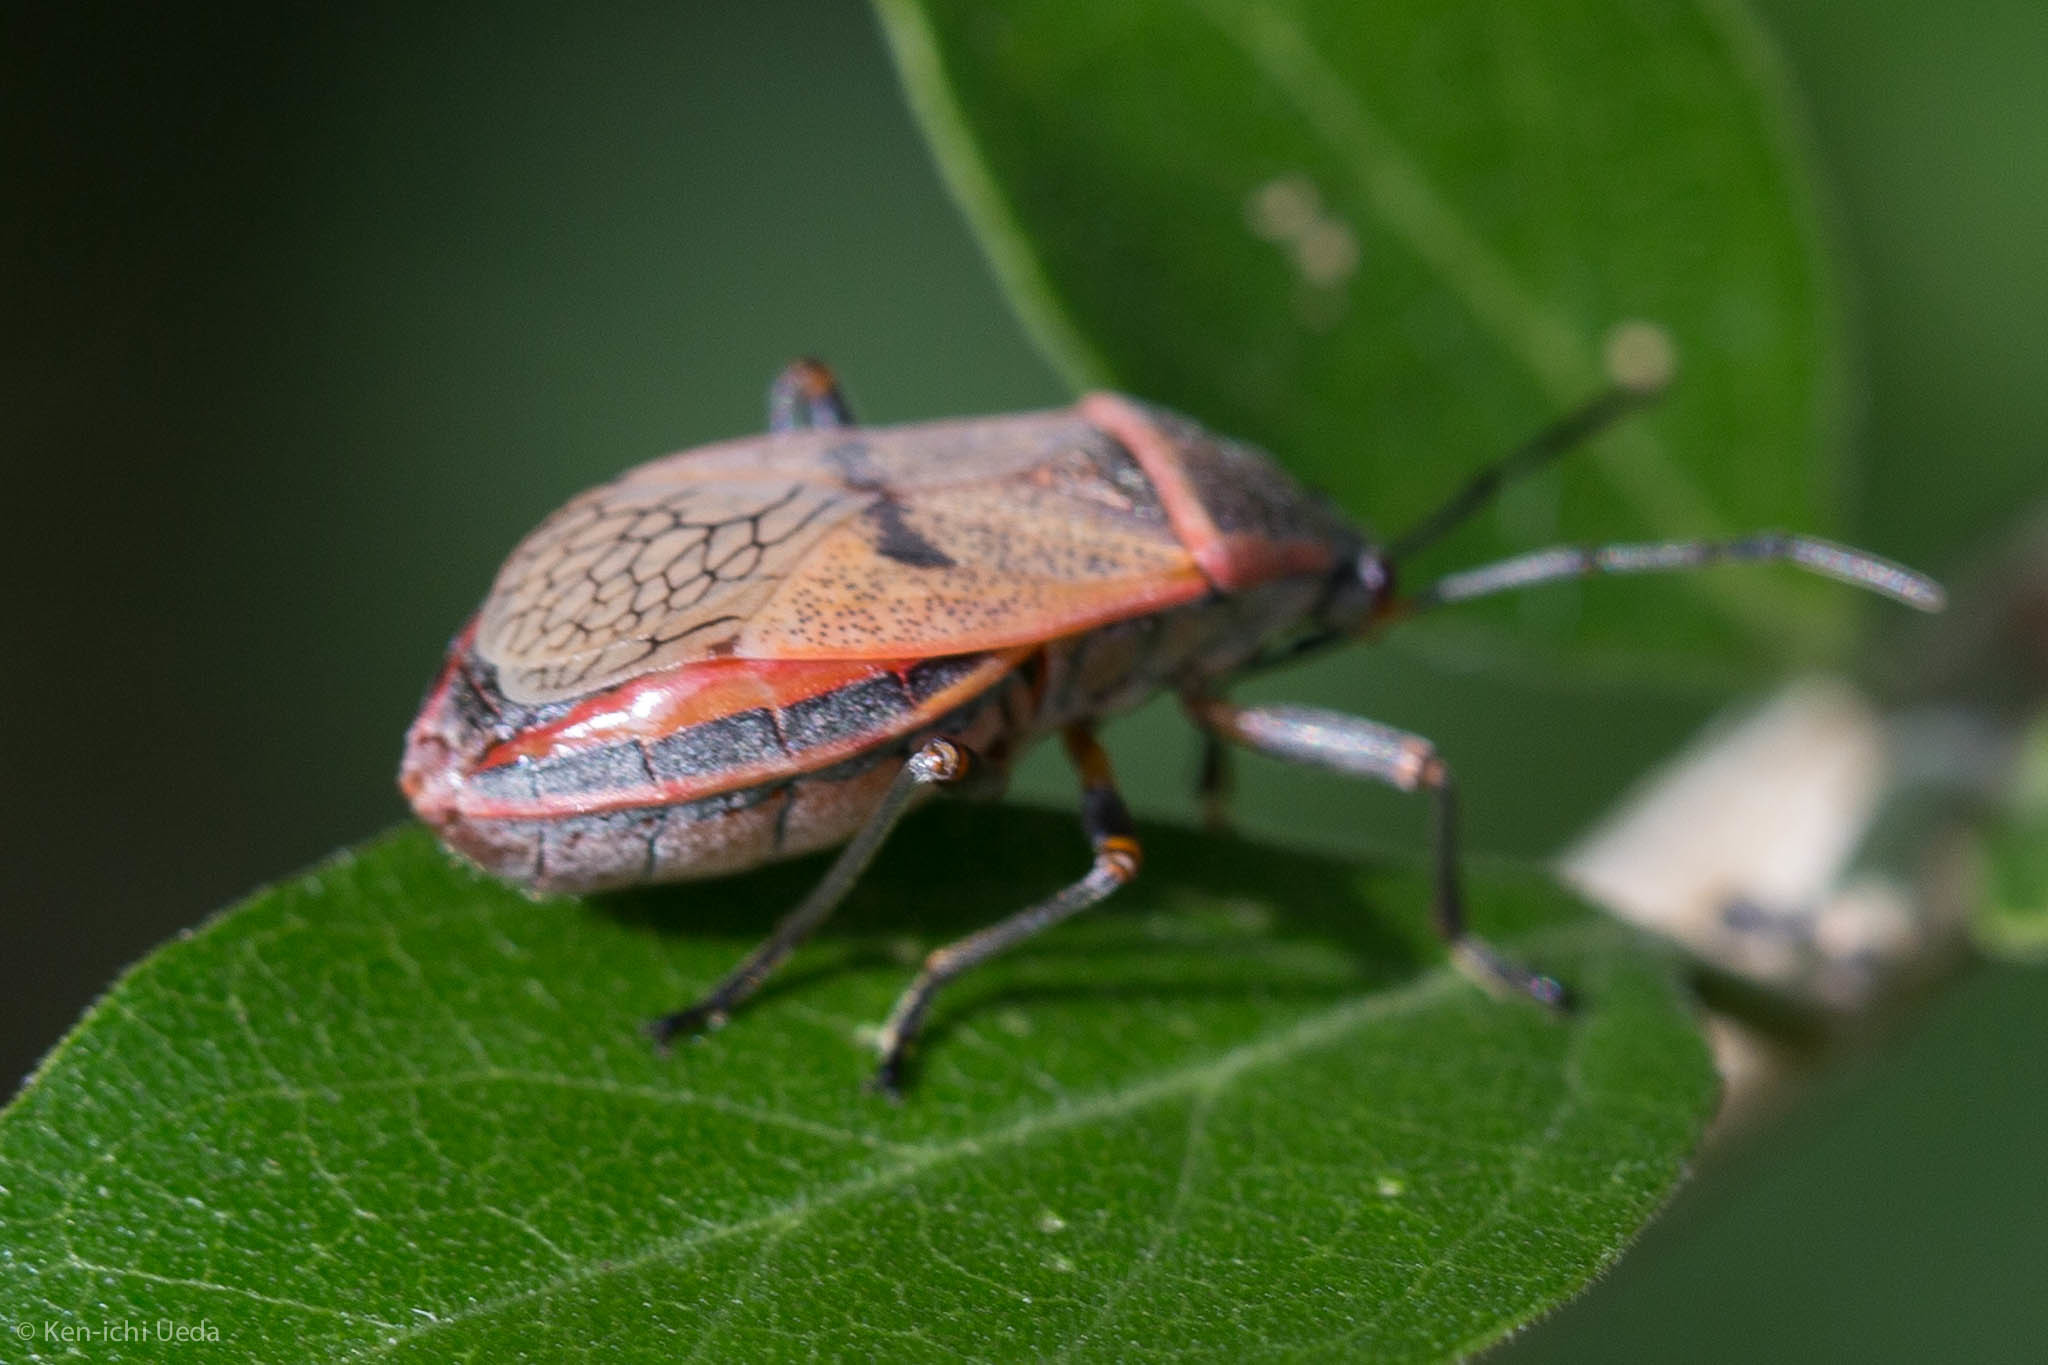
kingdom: Animalia
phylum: Arthropoda
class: Insecta
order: Hemiptera
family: Largidae
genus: Largus
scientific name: Largus maculatus
